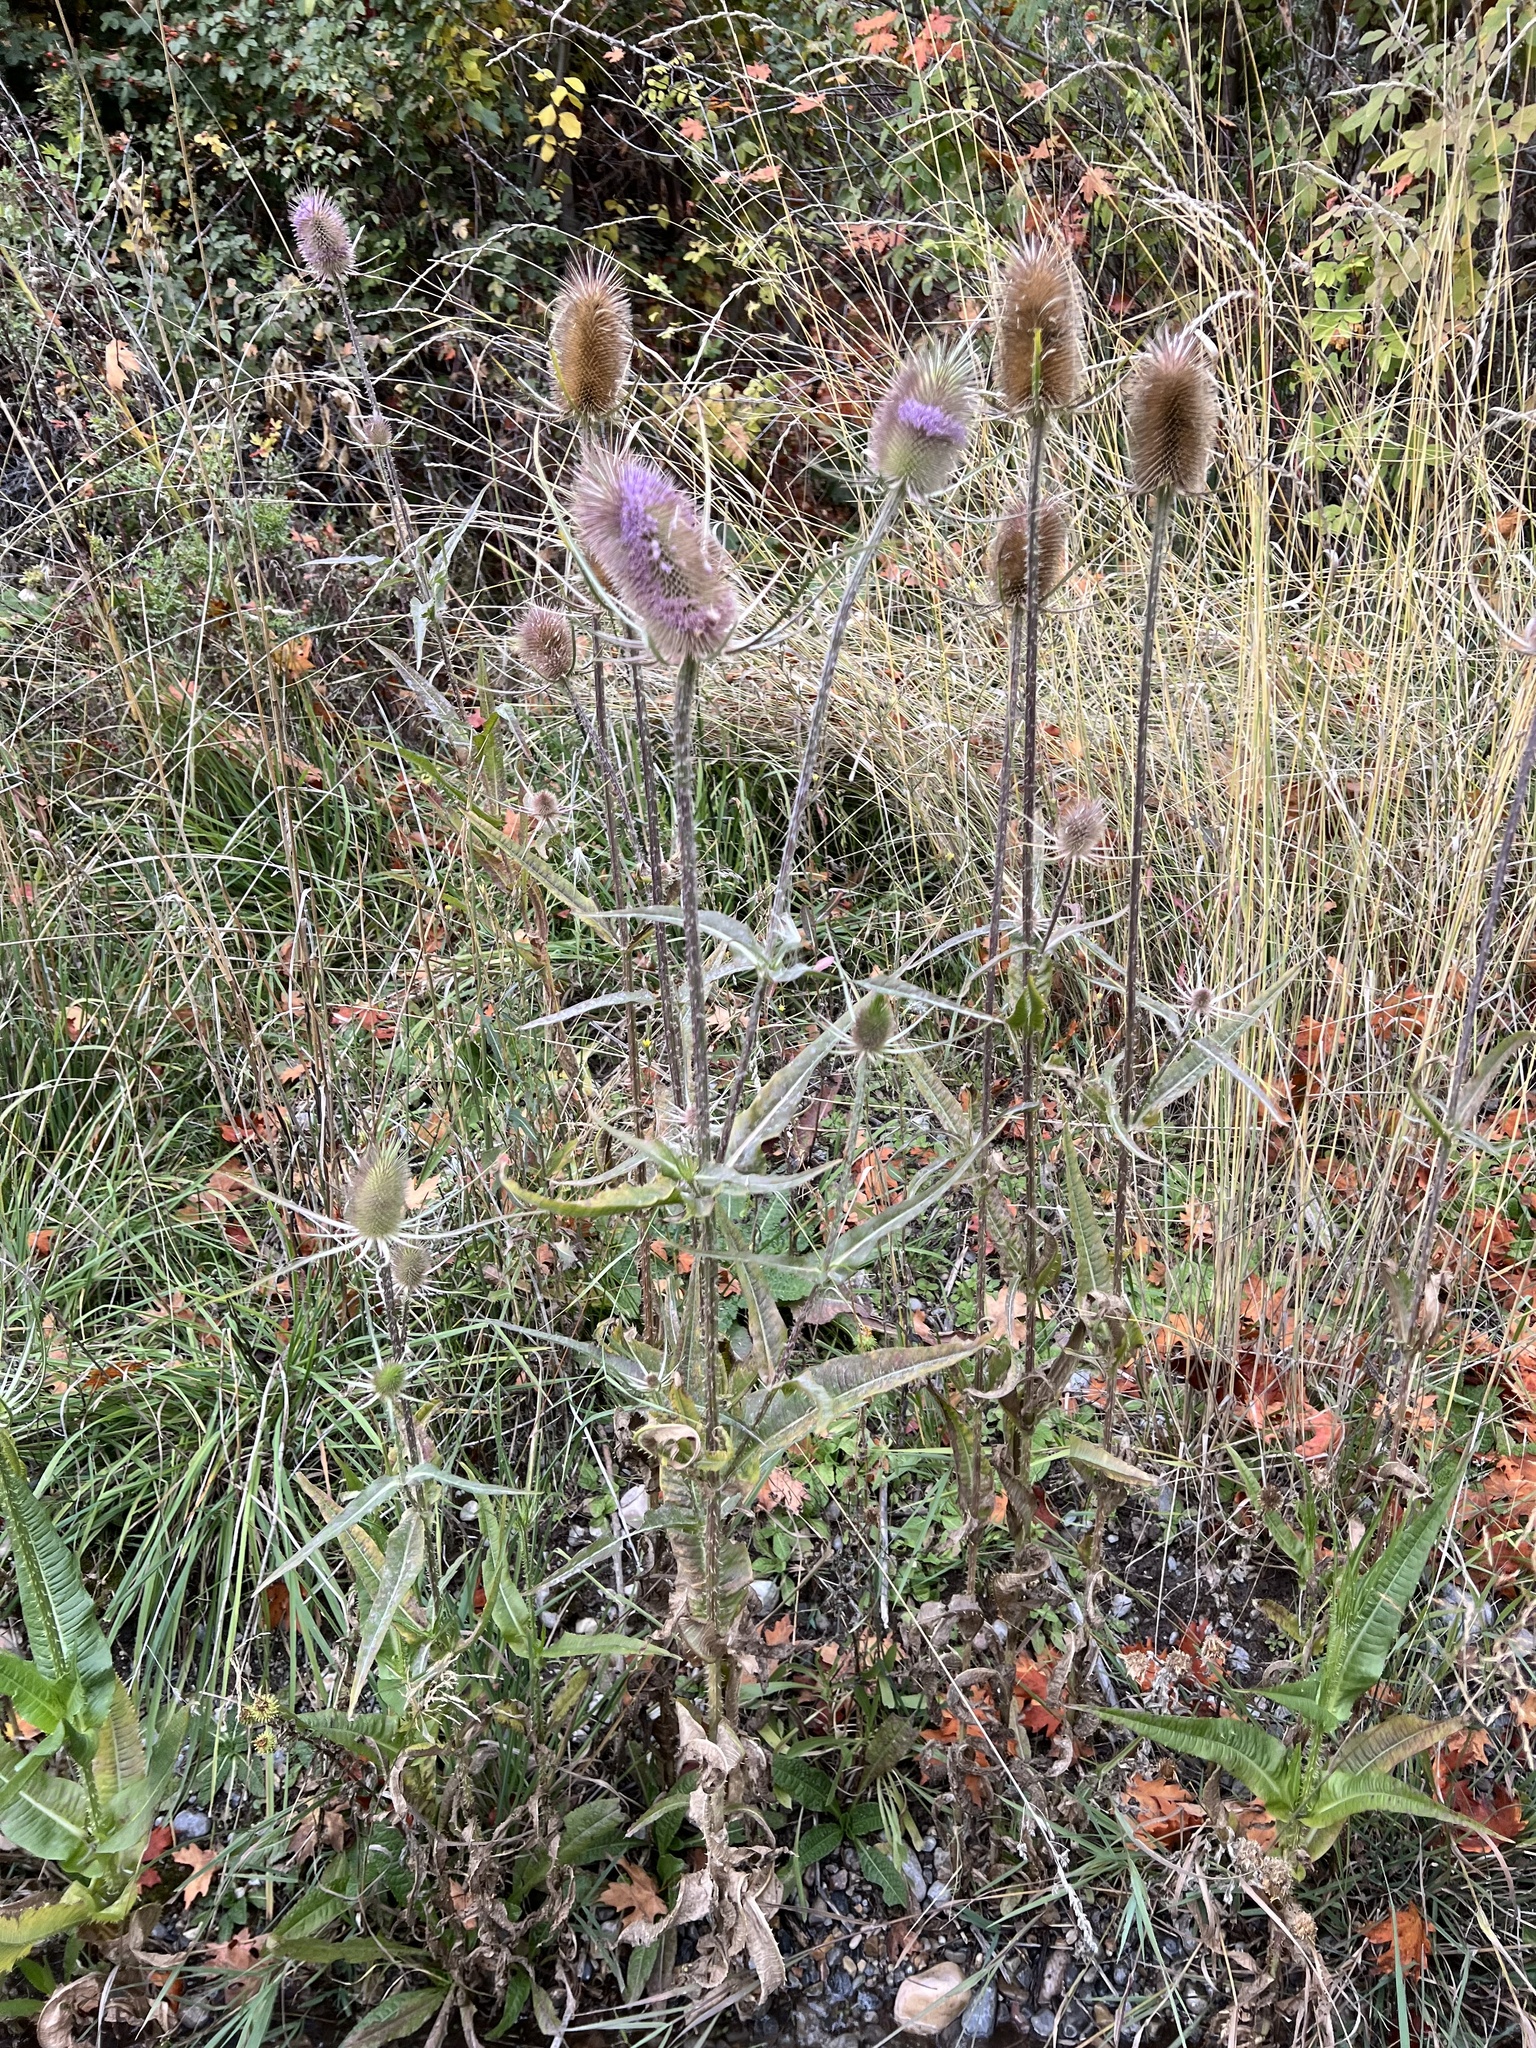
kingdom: Plantae
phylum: Tracheophyta
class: Magnoliopsida
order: Dipsacales
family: Caprifoliaceae
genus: Dipsacus
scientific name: Dipsacus fullonum
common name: Teasel
